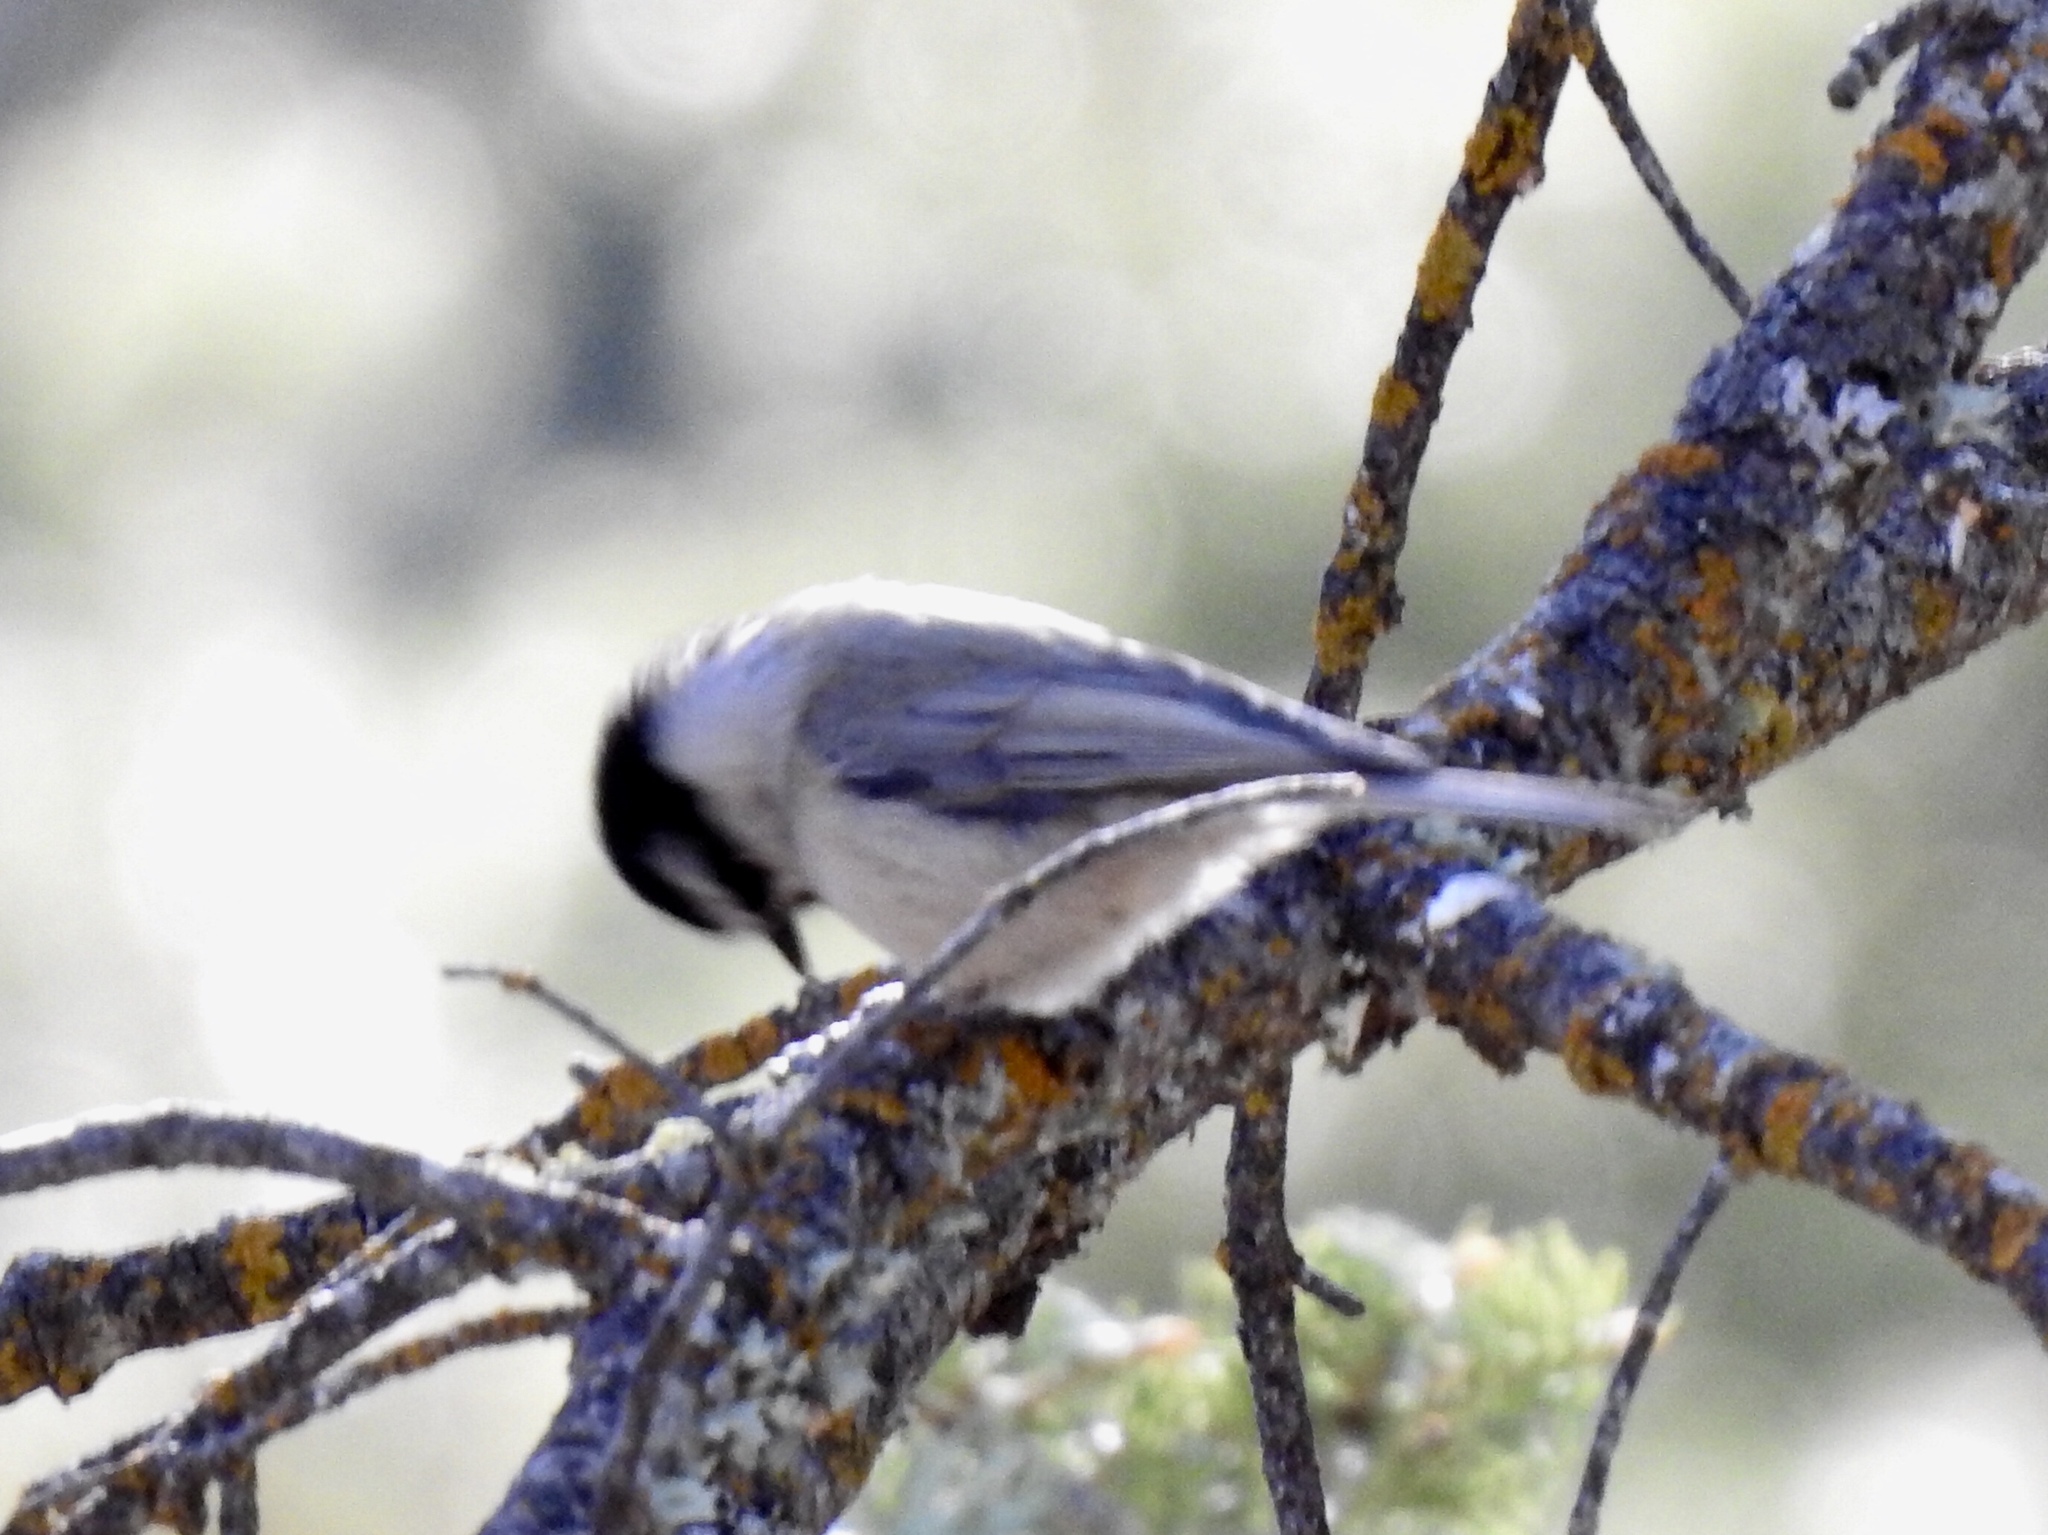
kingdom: Animalia
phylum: Chordata
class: Aves
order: Passeriformes
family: Paridae
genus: Poecile
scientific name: Poecile gambeli
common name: Mountain chickadee
